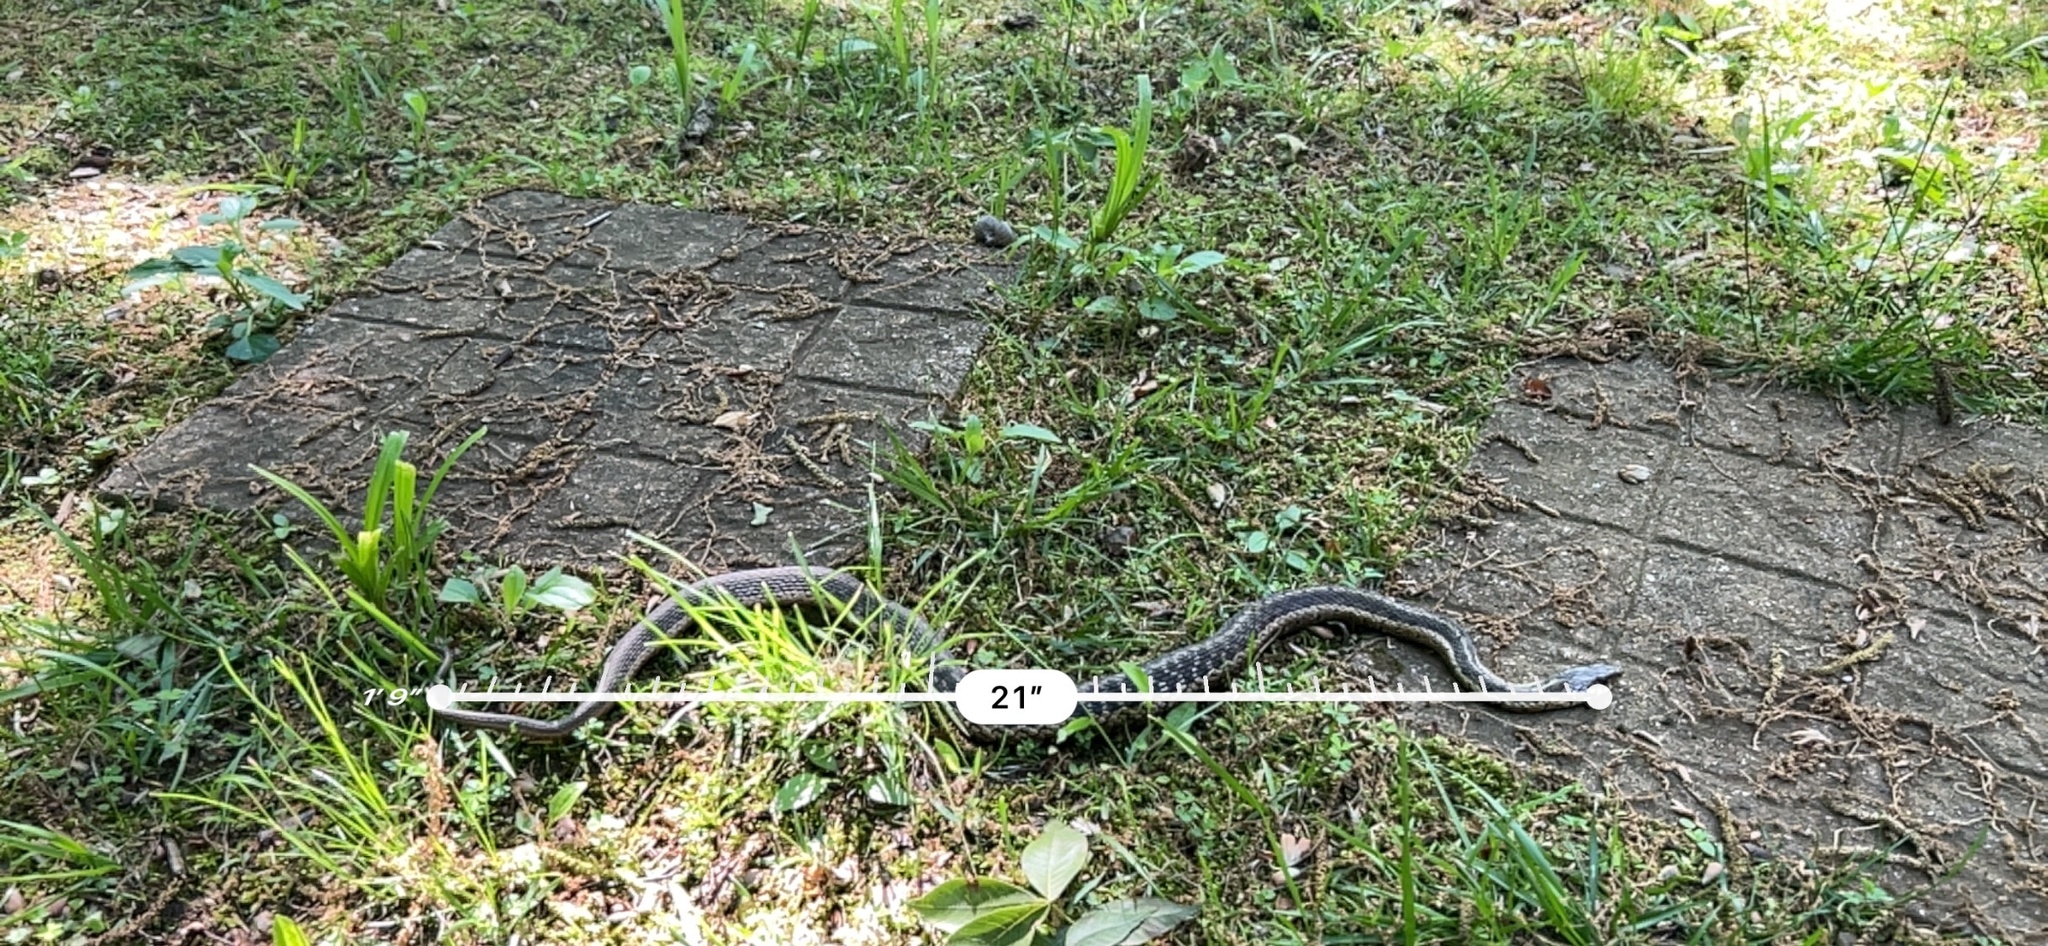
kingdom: Animalia
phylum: Chordata
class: Squamata
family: Colubridae
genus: Thamnophis
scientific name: Thamnophis sirtalis
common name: Common garter snake
